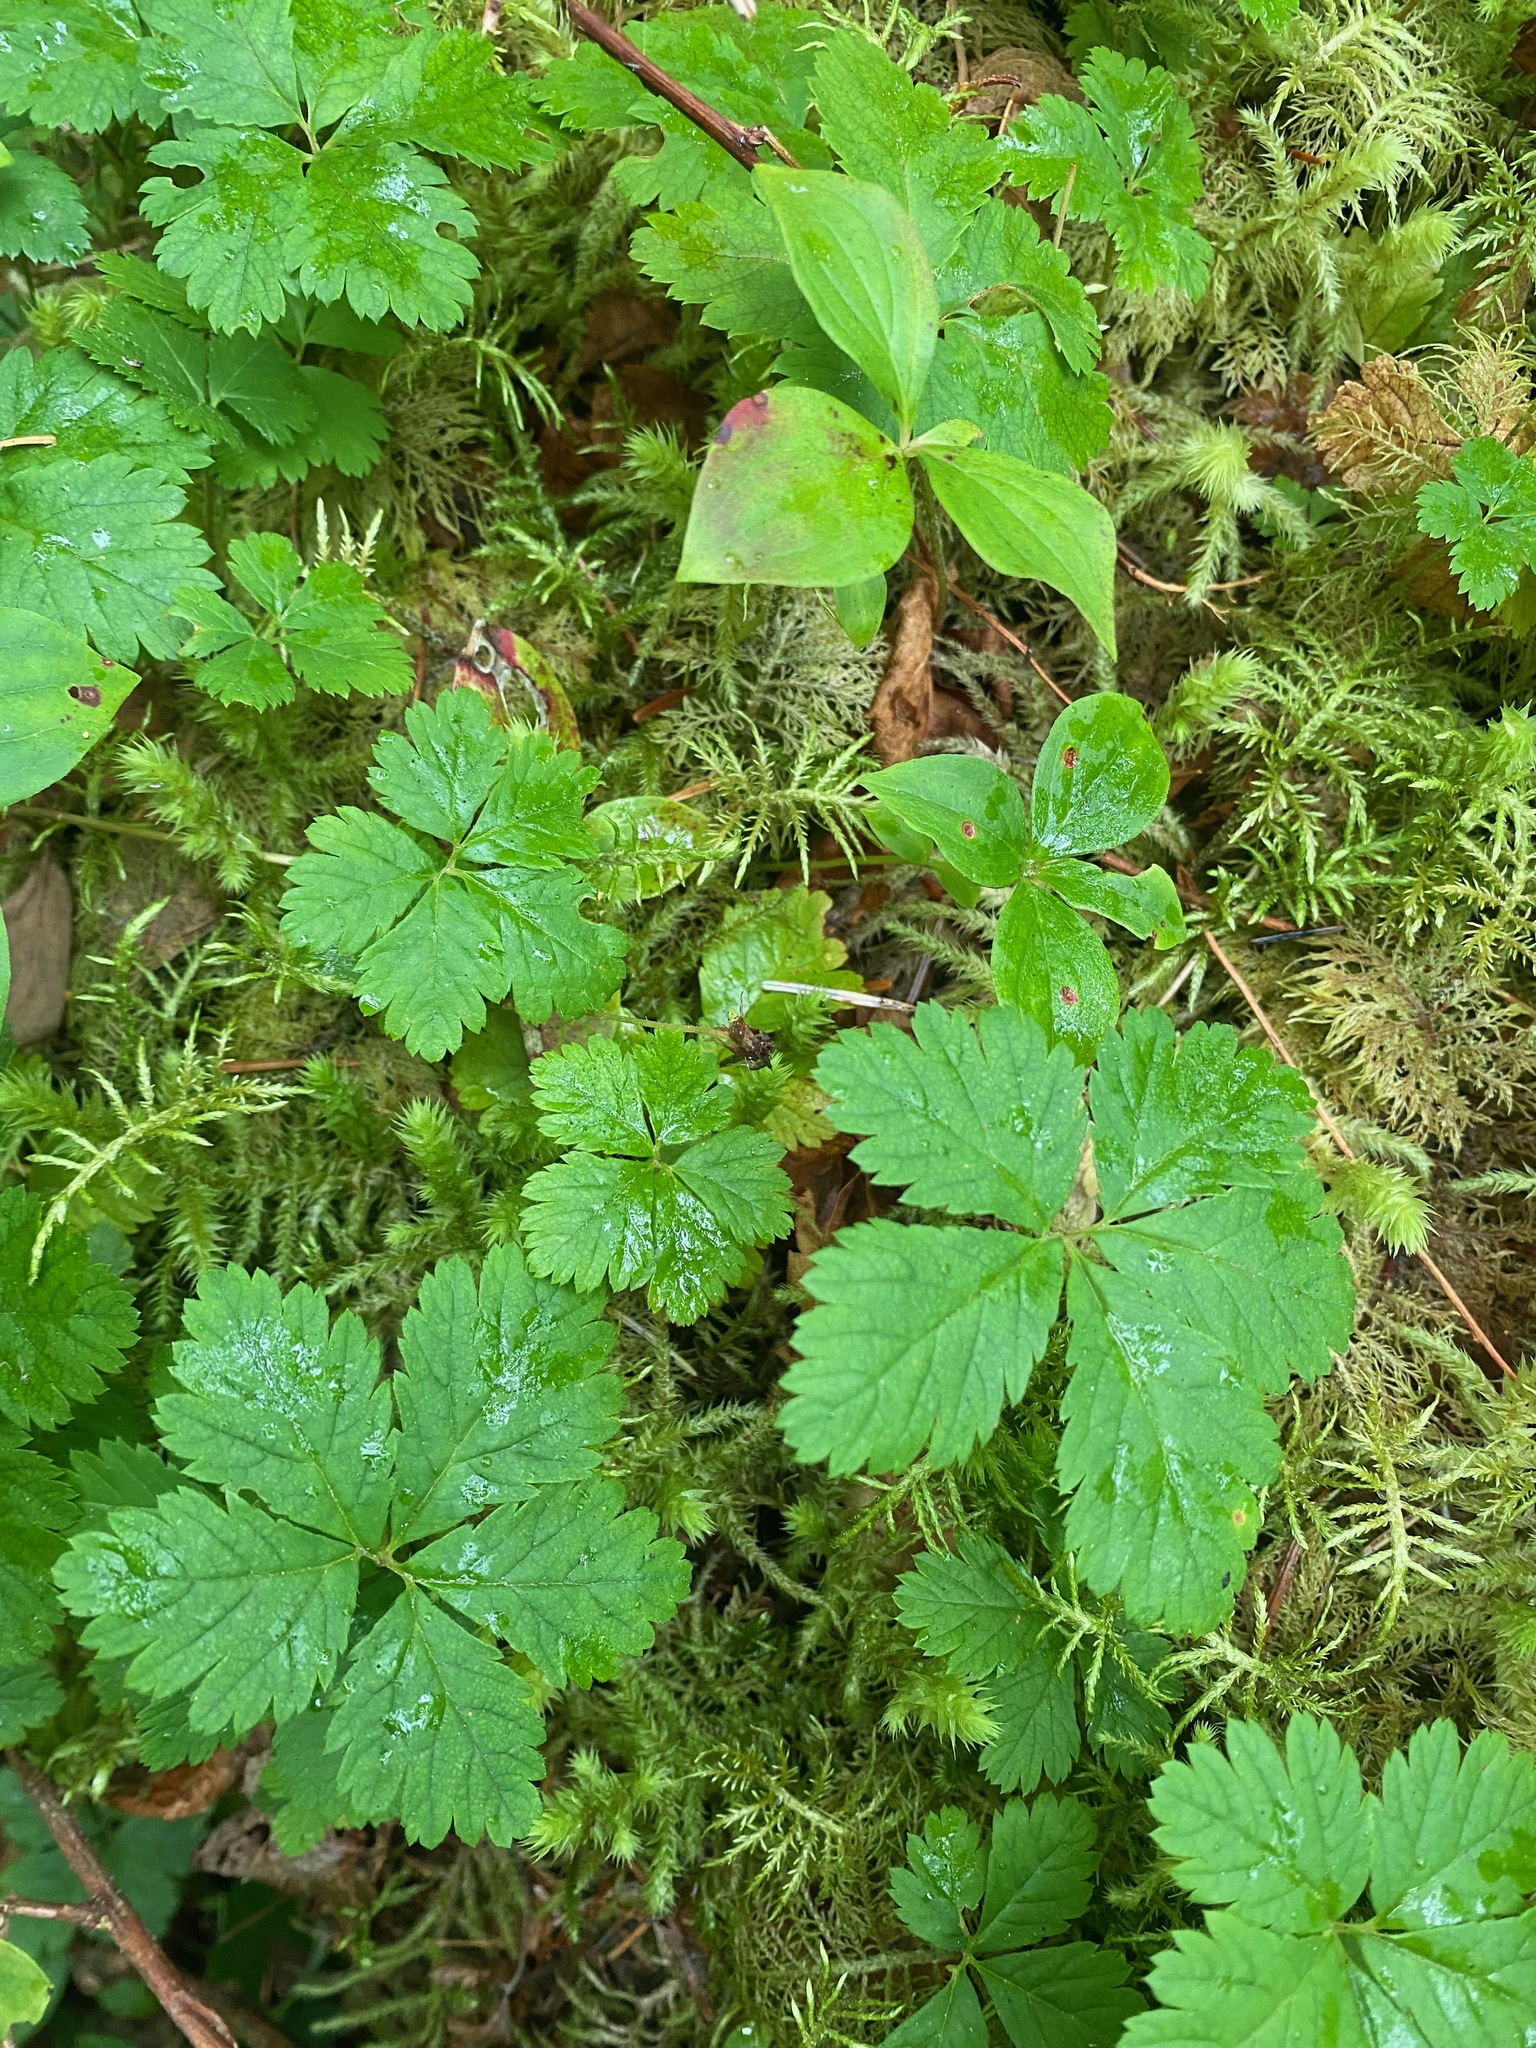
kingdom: Plantae
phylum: Tracheophyta
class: Magnoliopsida
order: Rosales
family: Rosaceae
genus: Rubus
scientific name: Rubus pedatus
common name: Creeping raspberry
